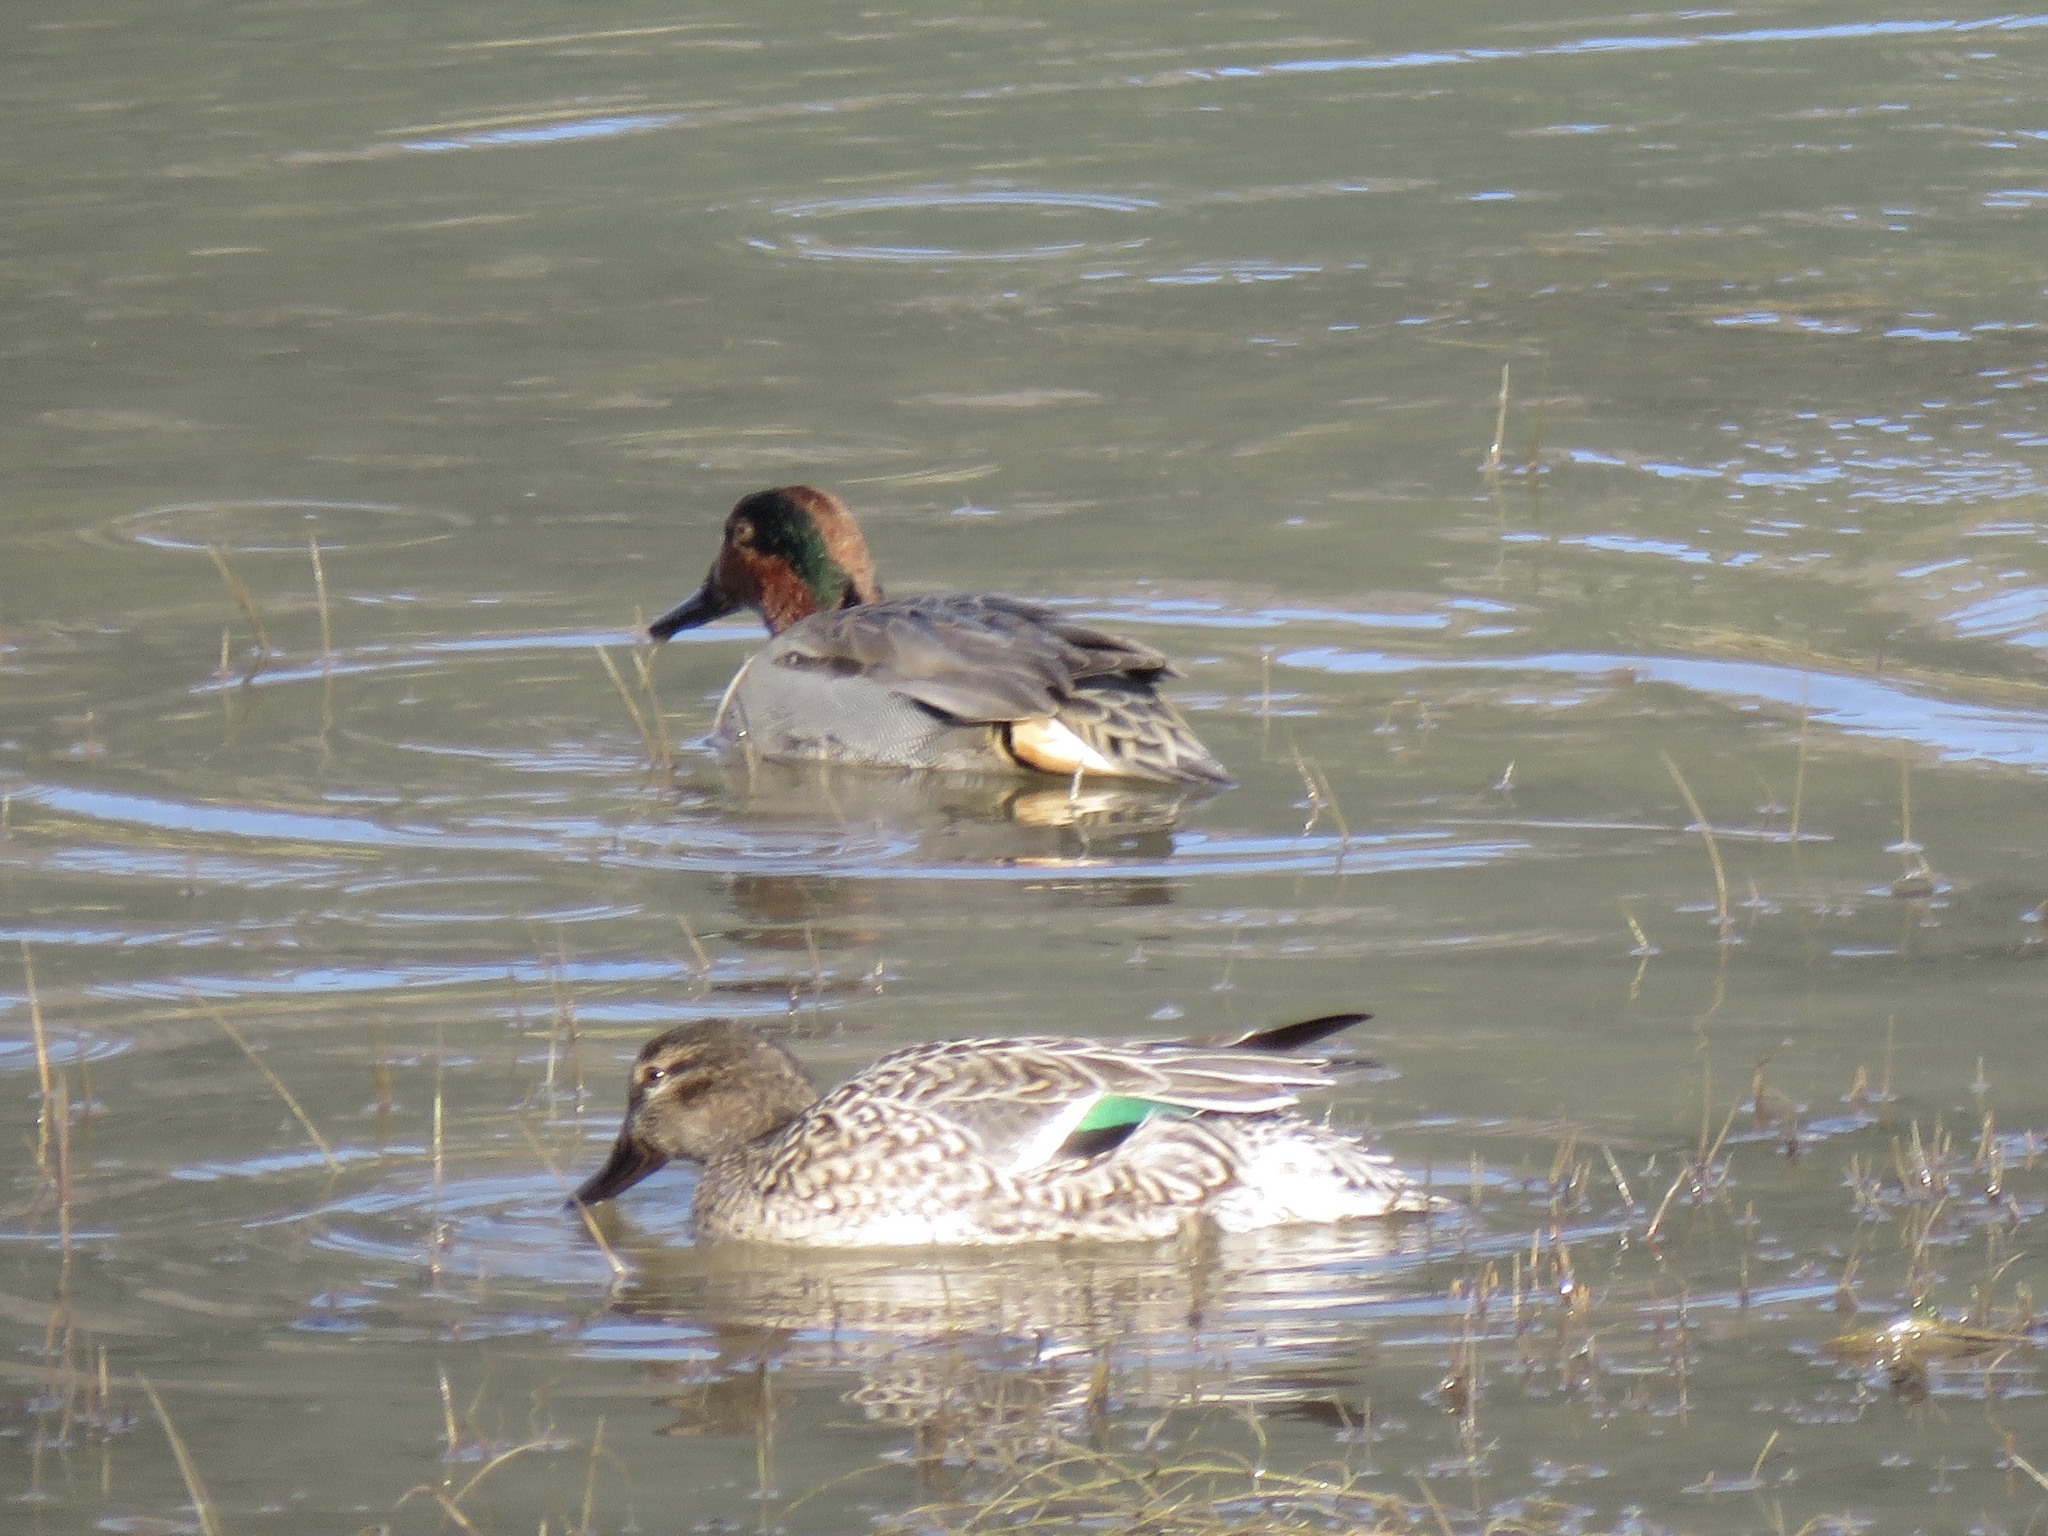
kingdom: Animalia
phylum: Chordata
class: Aves
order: Anseriformes
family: Anatidae
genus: Anas
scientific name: Anas crecca
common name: Eurasian teal
